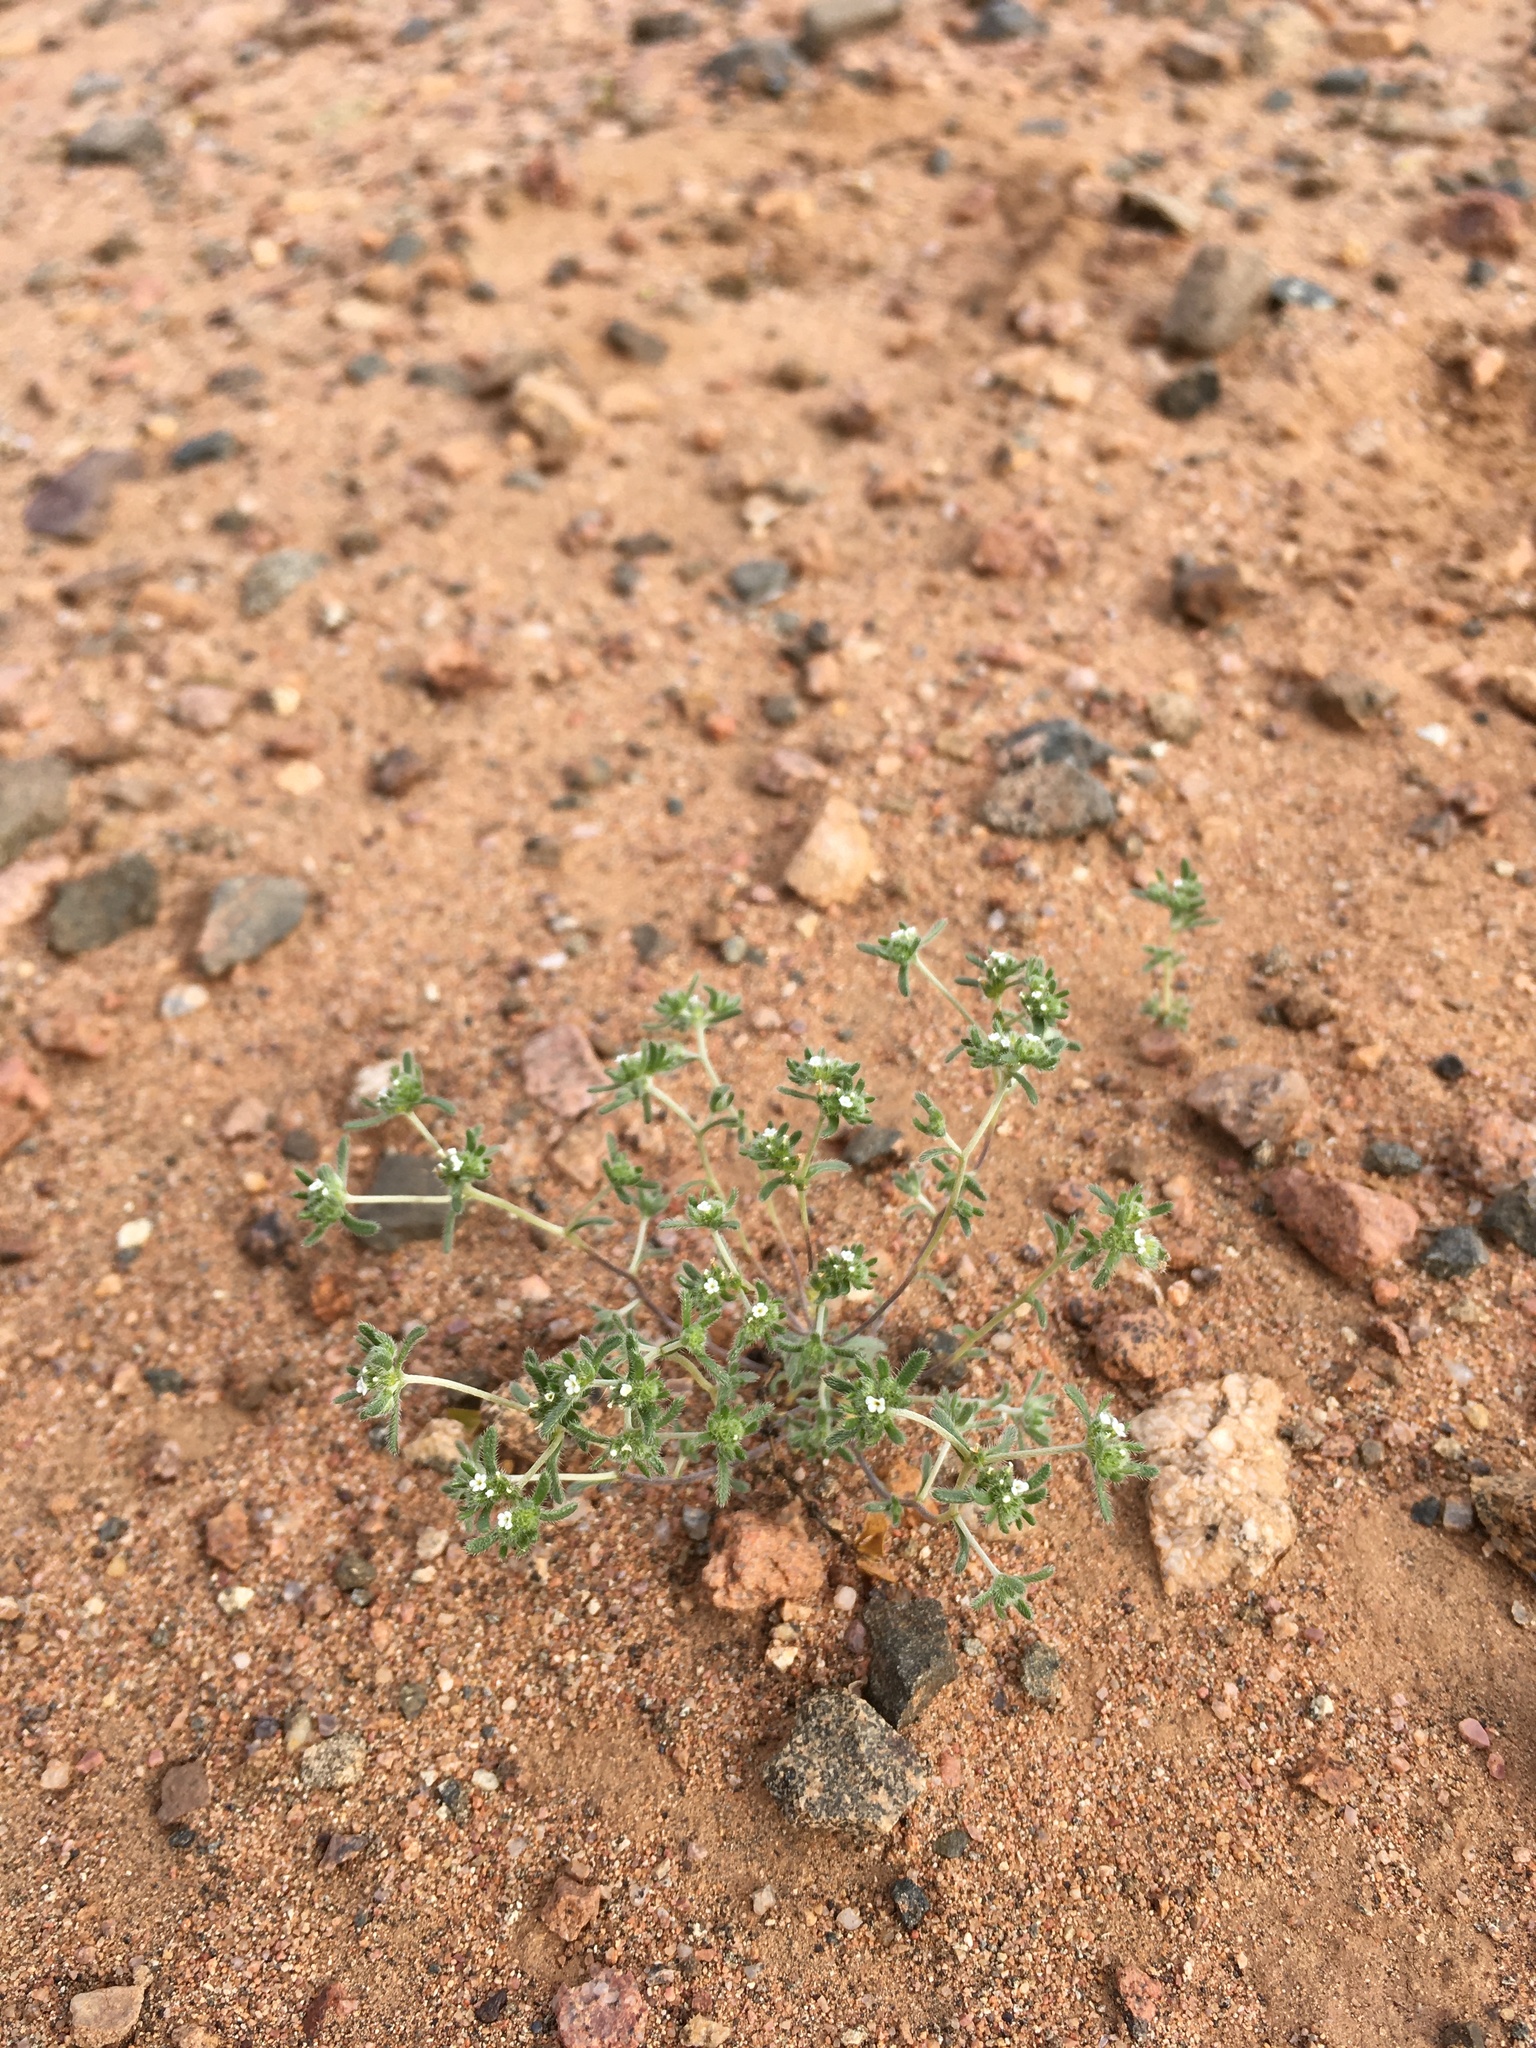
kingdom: Plantae
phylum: Tracheophyta
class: Magnoliopsida
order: Boraginales
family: Boraginaceae
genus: Eremocarya
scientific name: Eremocarya micrantha
